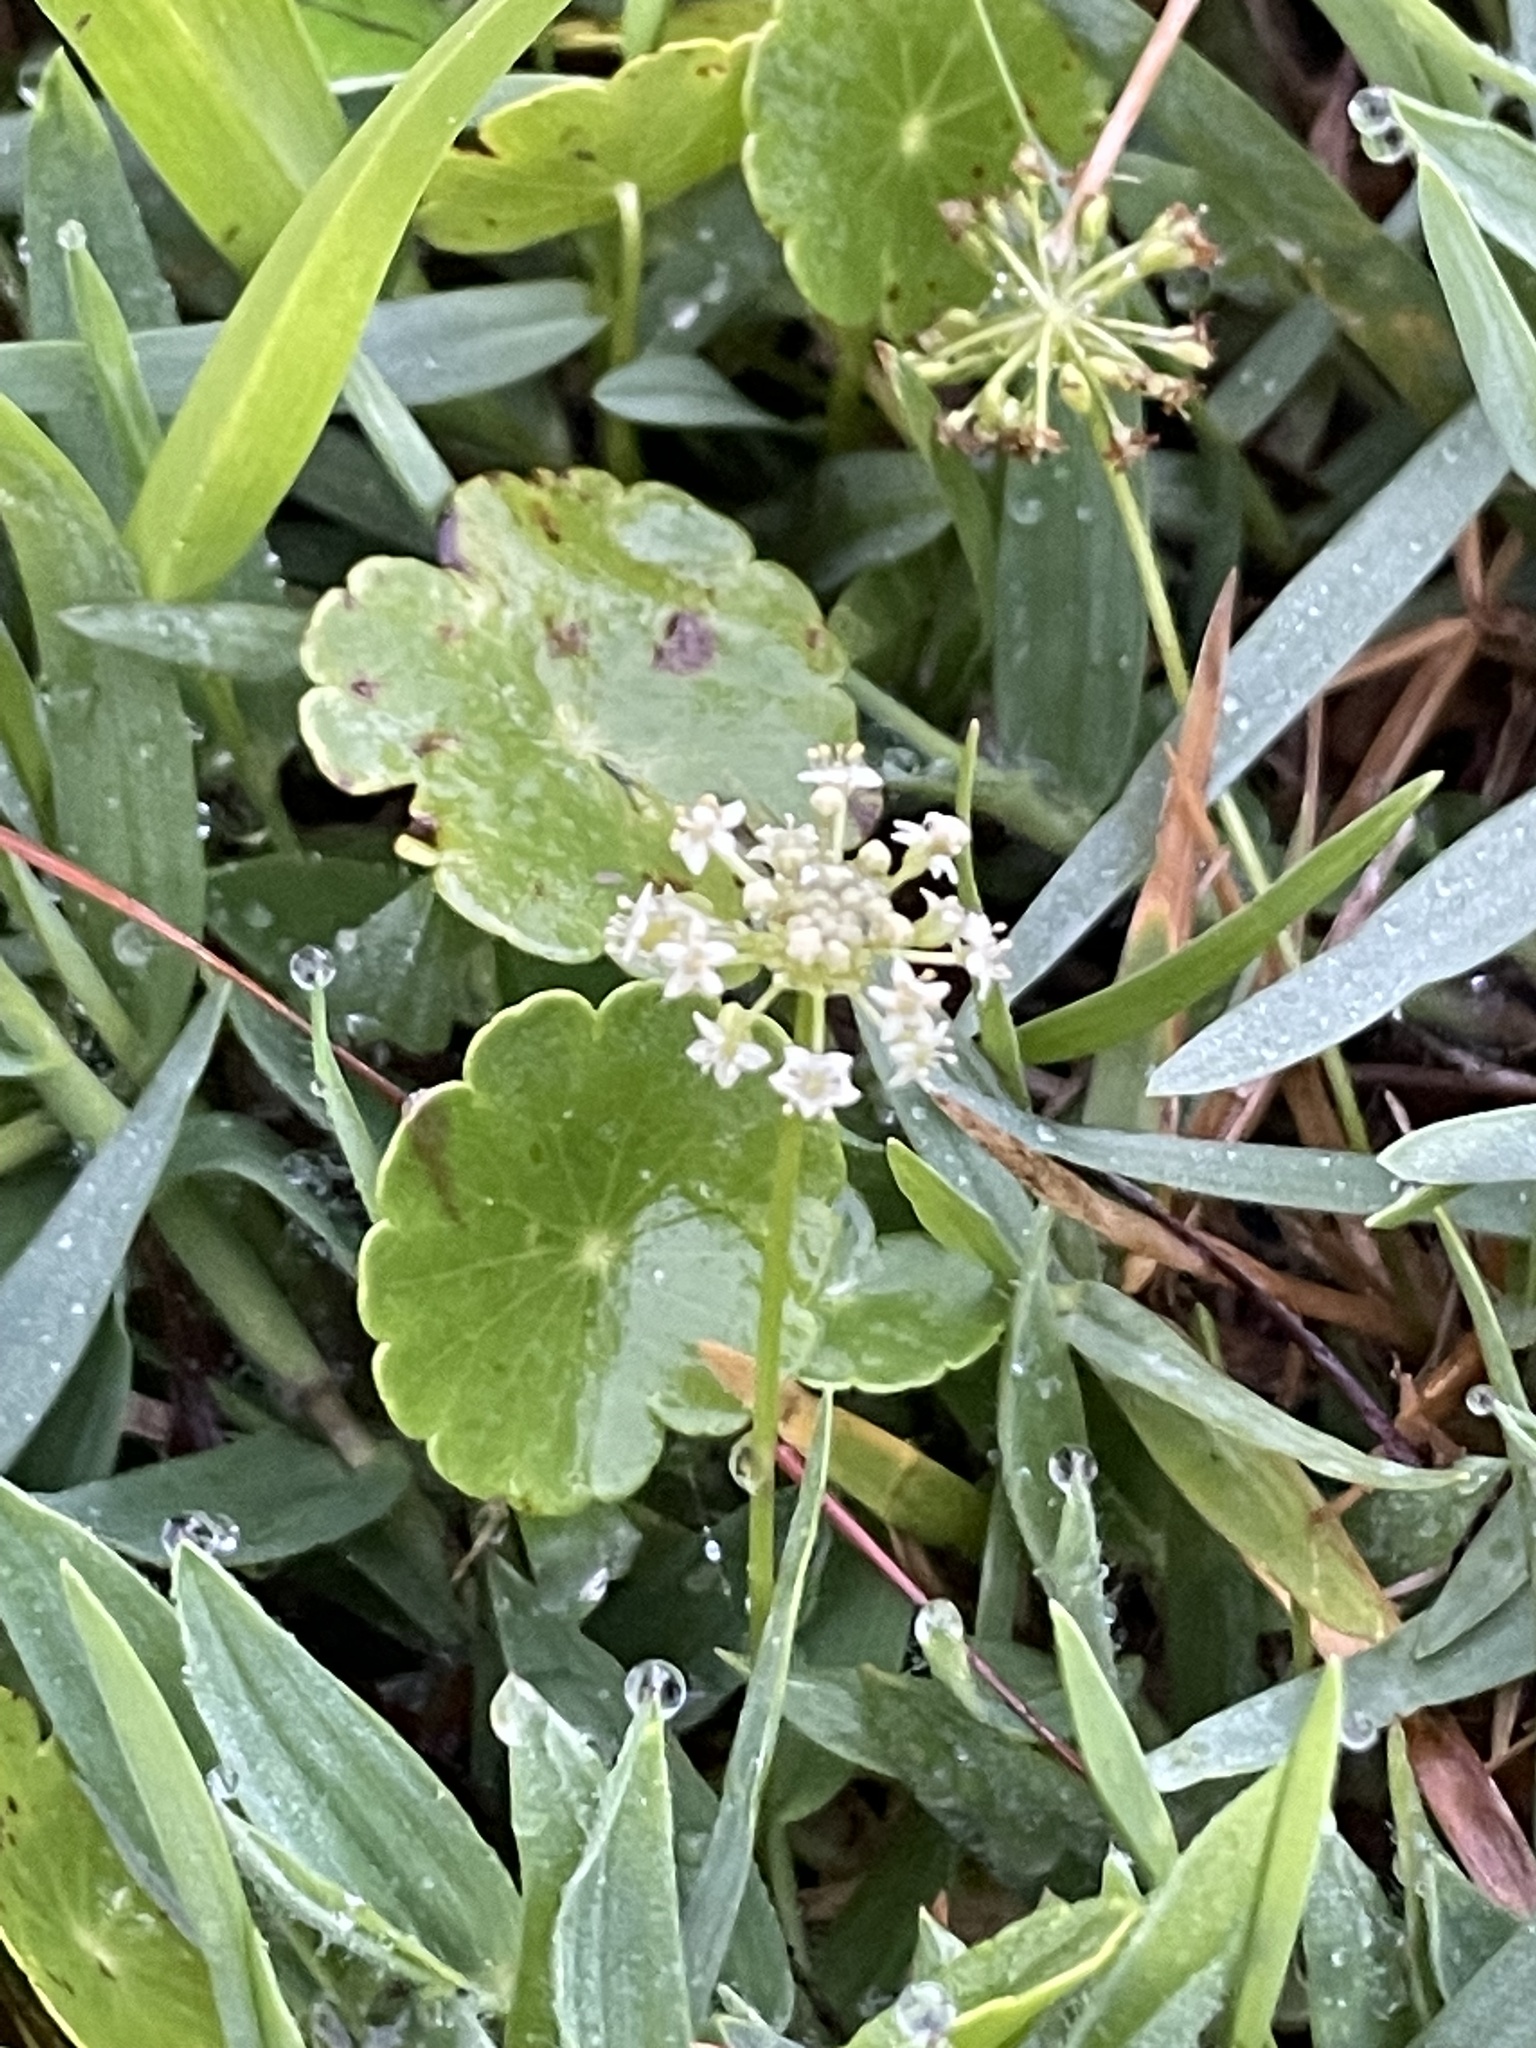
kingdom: Plantae
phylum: Tracheophyta
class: Magnoliopsida
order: Apiales
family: Araliaceae
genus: Hydrocotyle
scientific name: Hydrocotyle umbellata
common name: Water pennywort
